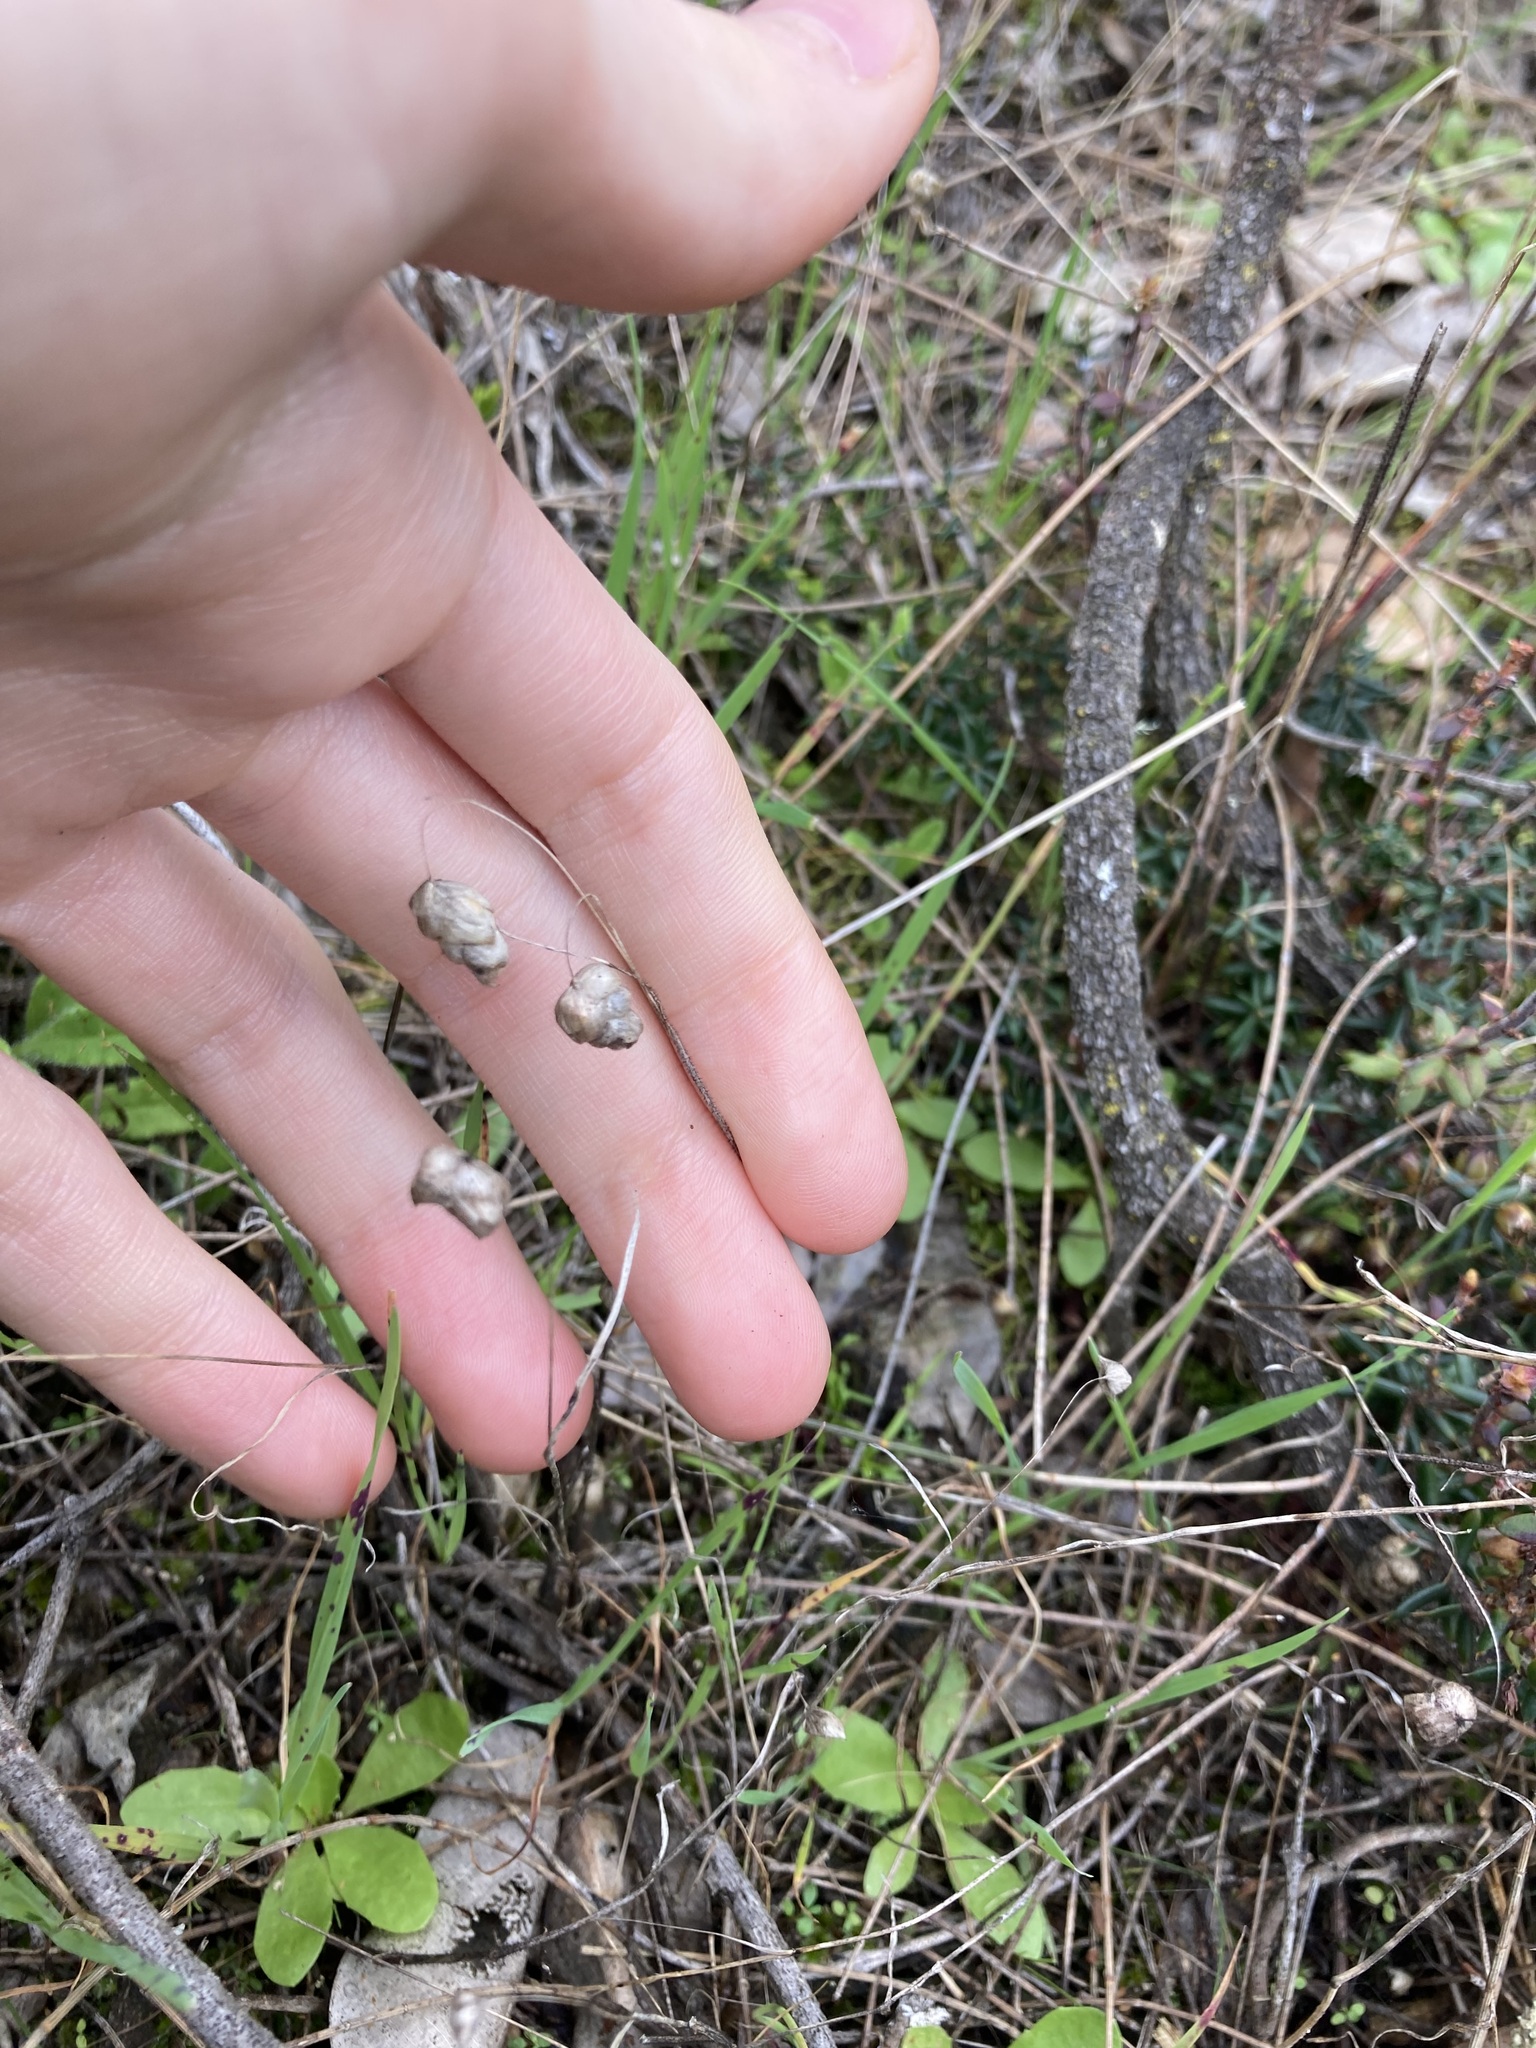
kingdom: Plantae
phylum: Tracheophyta
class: Liliopsida
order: Poales
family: Poaceae
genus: Briza
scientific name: Briza maxima
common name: Big quakinggrass
